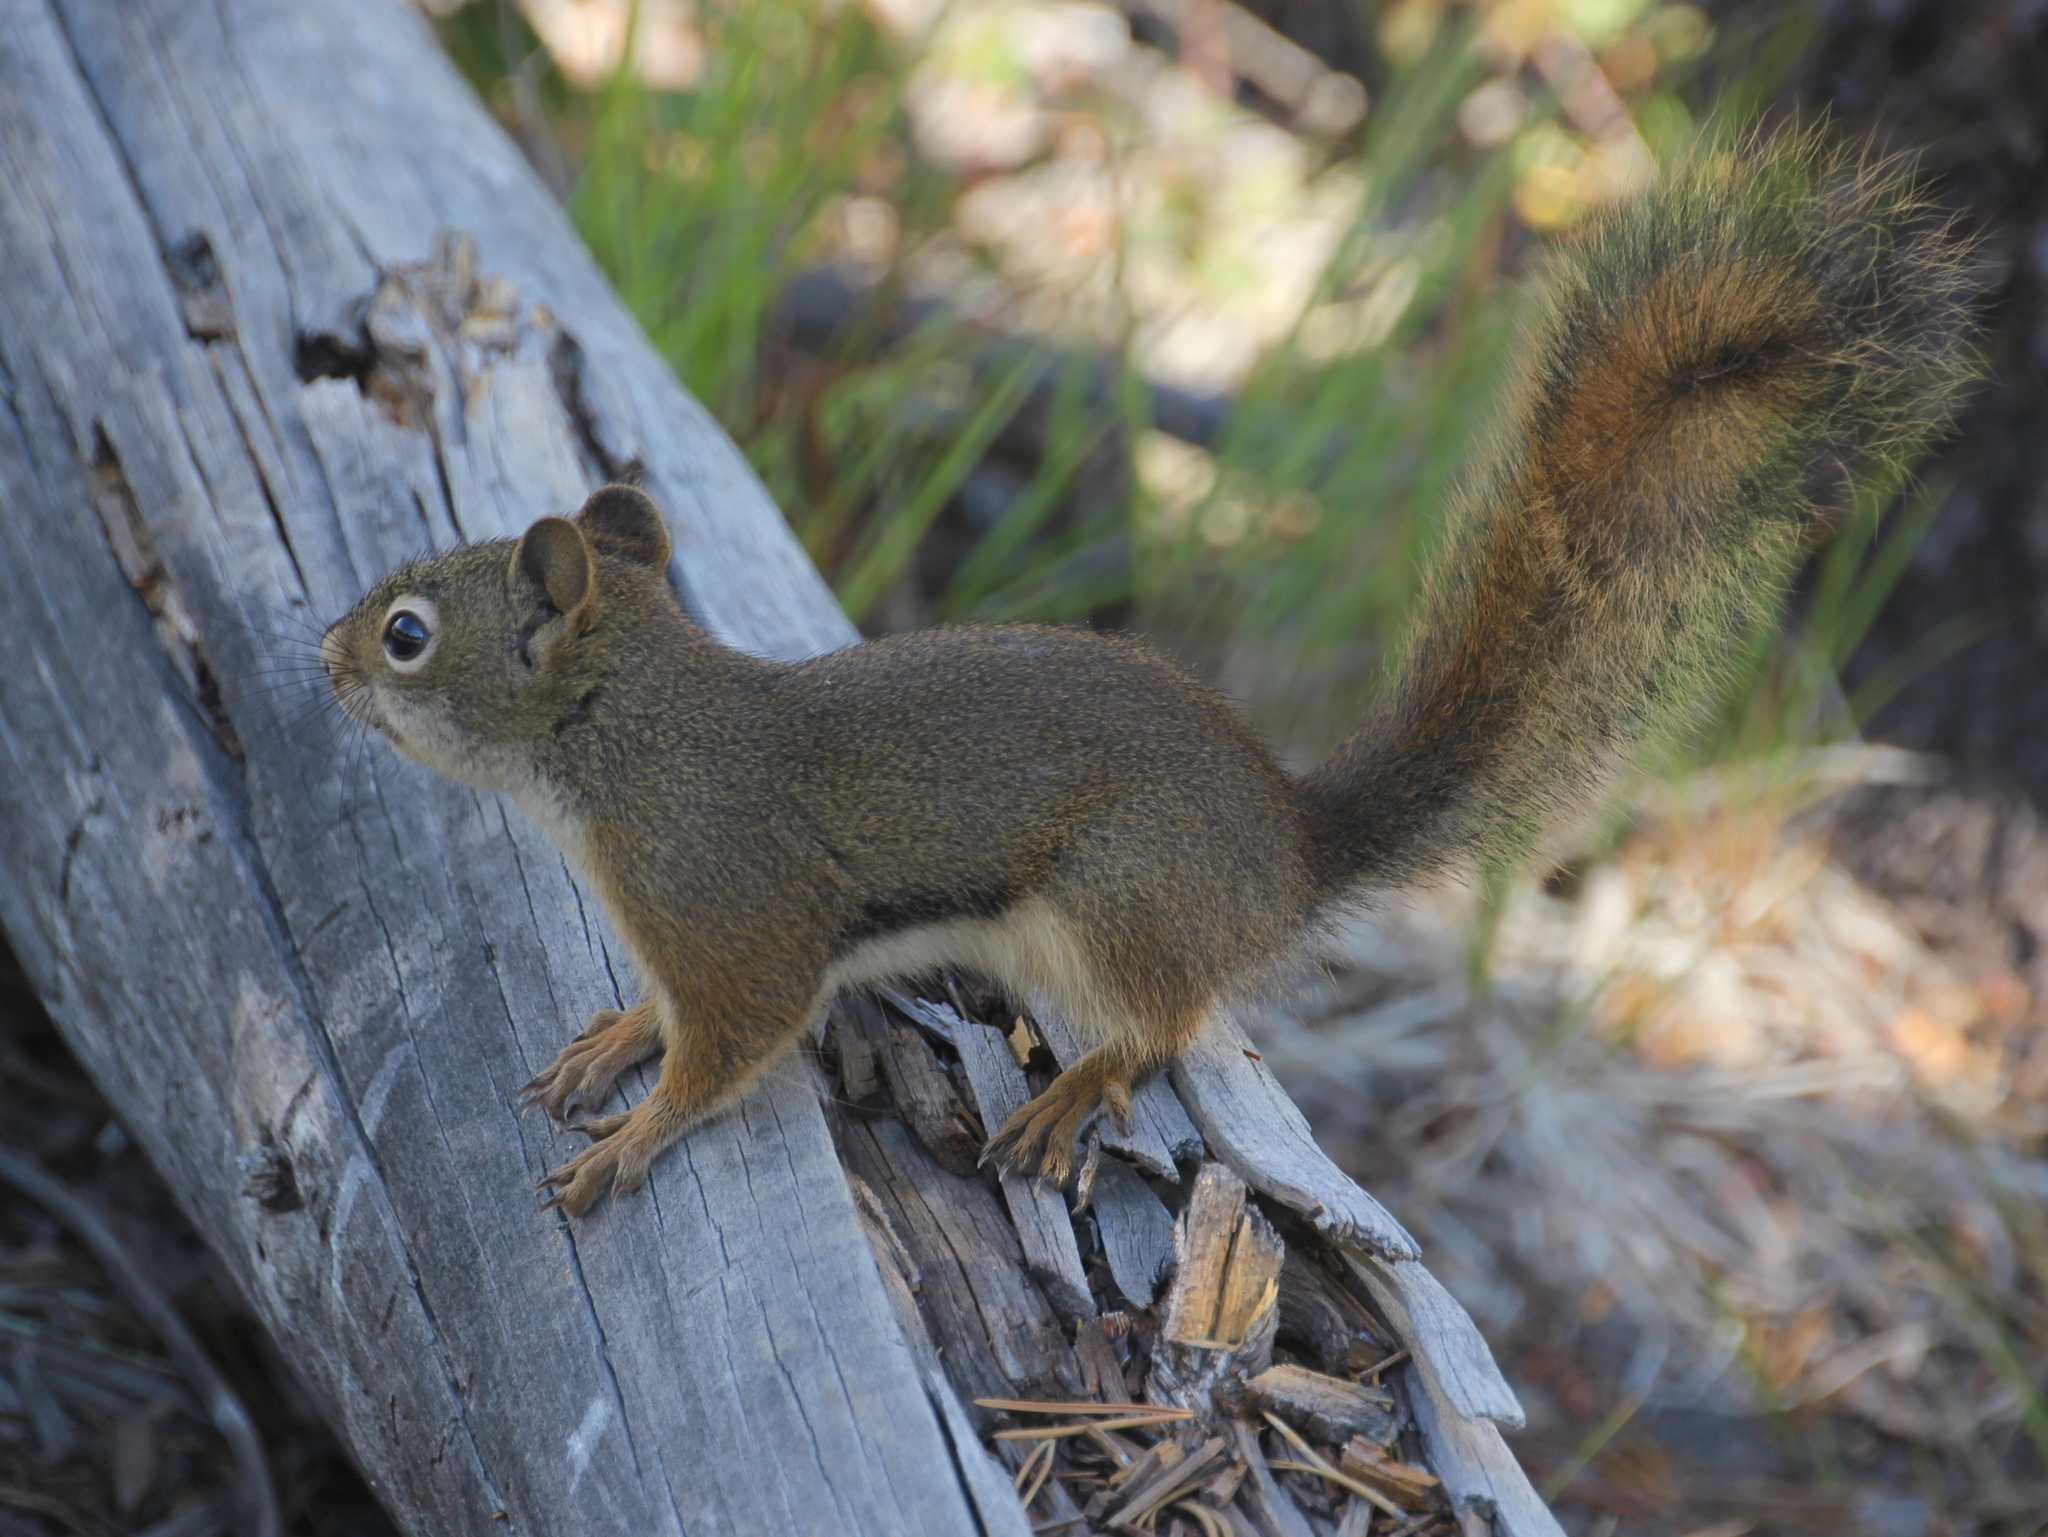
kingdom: Animalia
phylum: Chordata
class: Mammalia
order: Rodentia
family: Sciuridae
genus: Tamiasciurus
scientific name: Tamiasciurus hudsonicus
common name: Red squirrel
